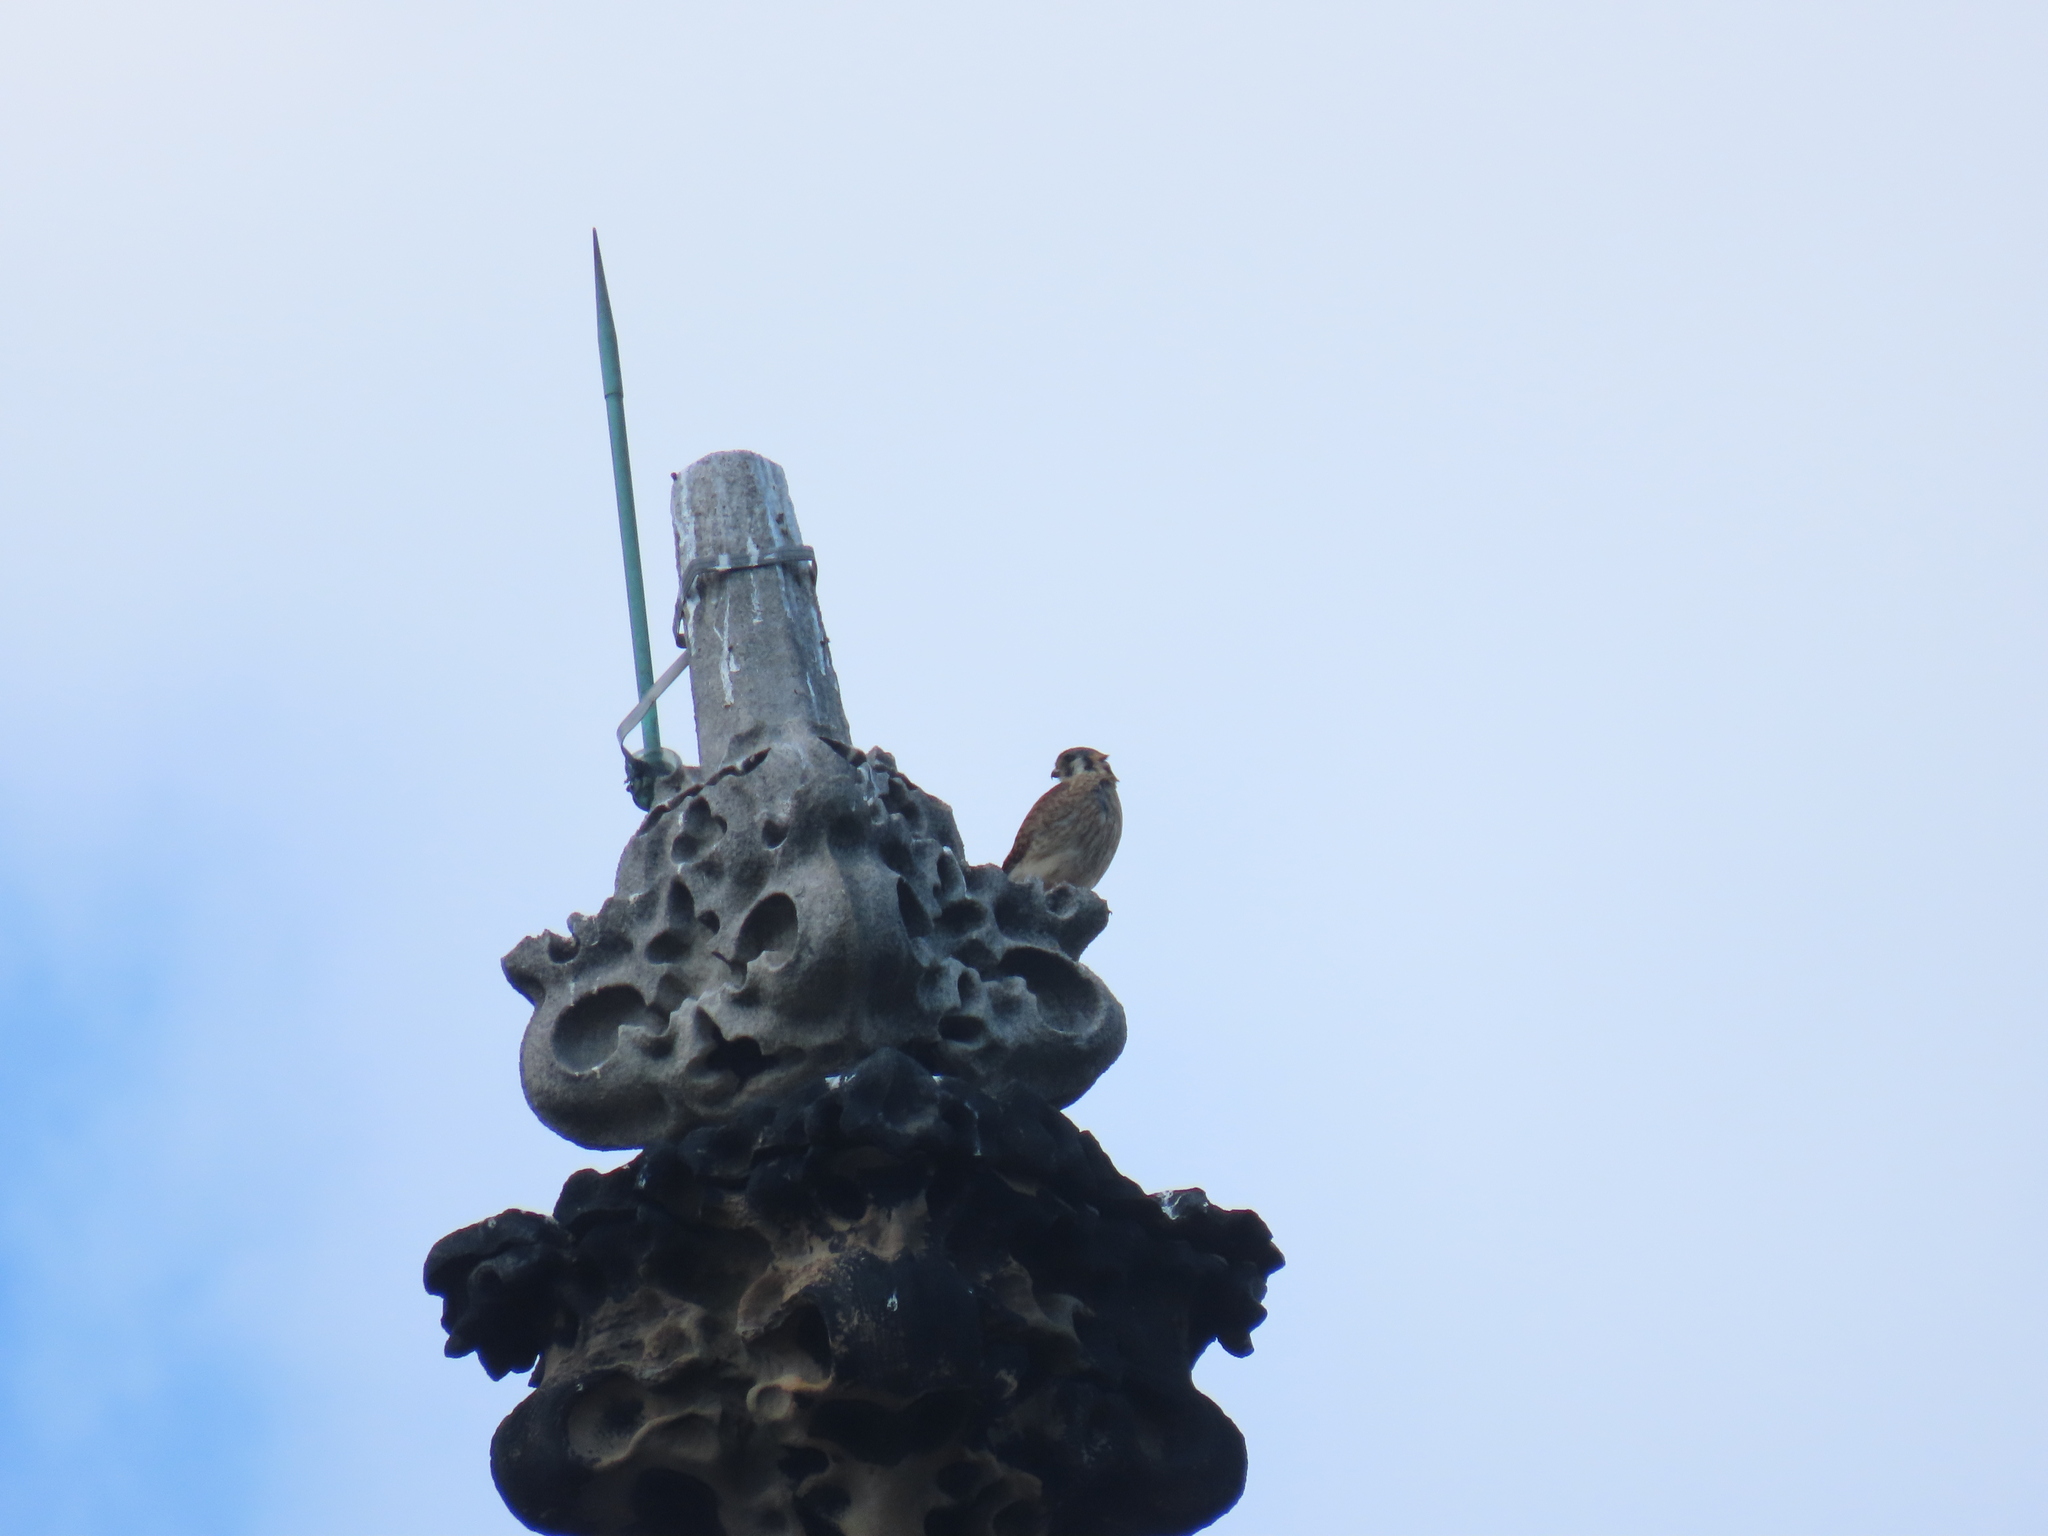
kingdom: Animalia
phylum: Chordata
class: Aves
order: Falconiformes
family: Falconidae
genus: Falco
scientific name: Falco sparverius
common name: American kestrel
